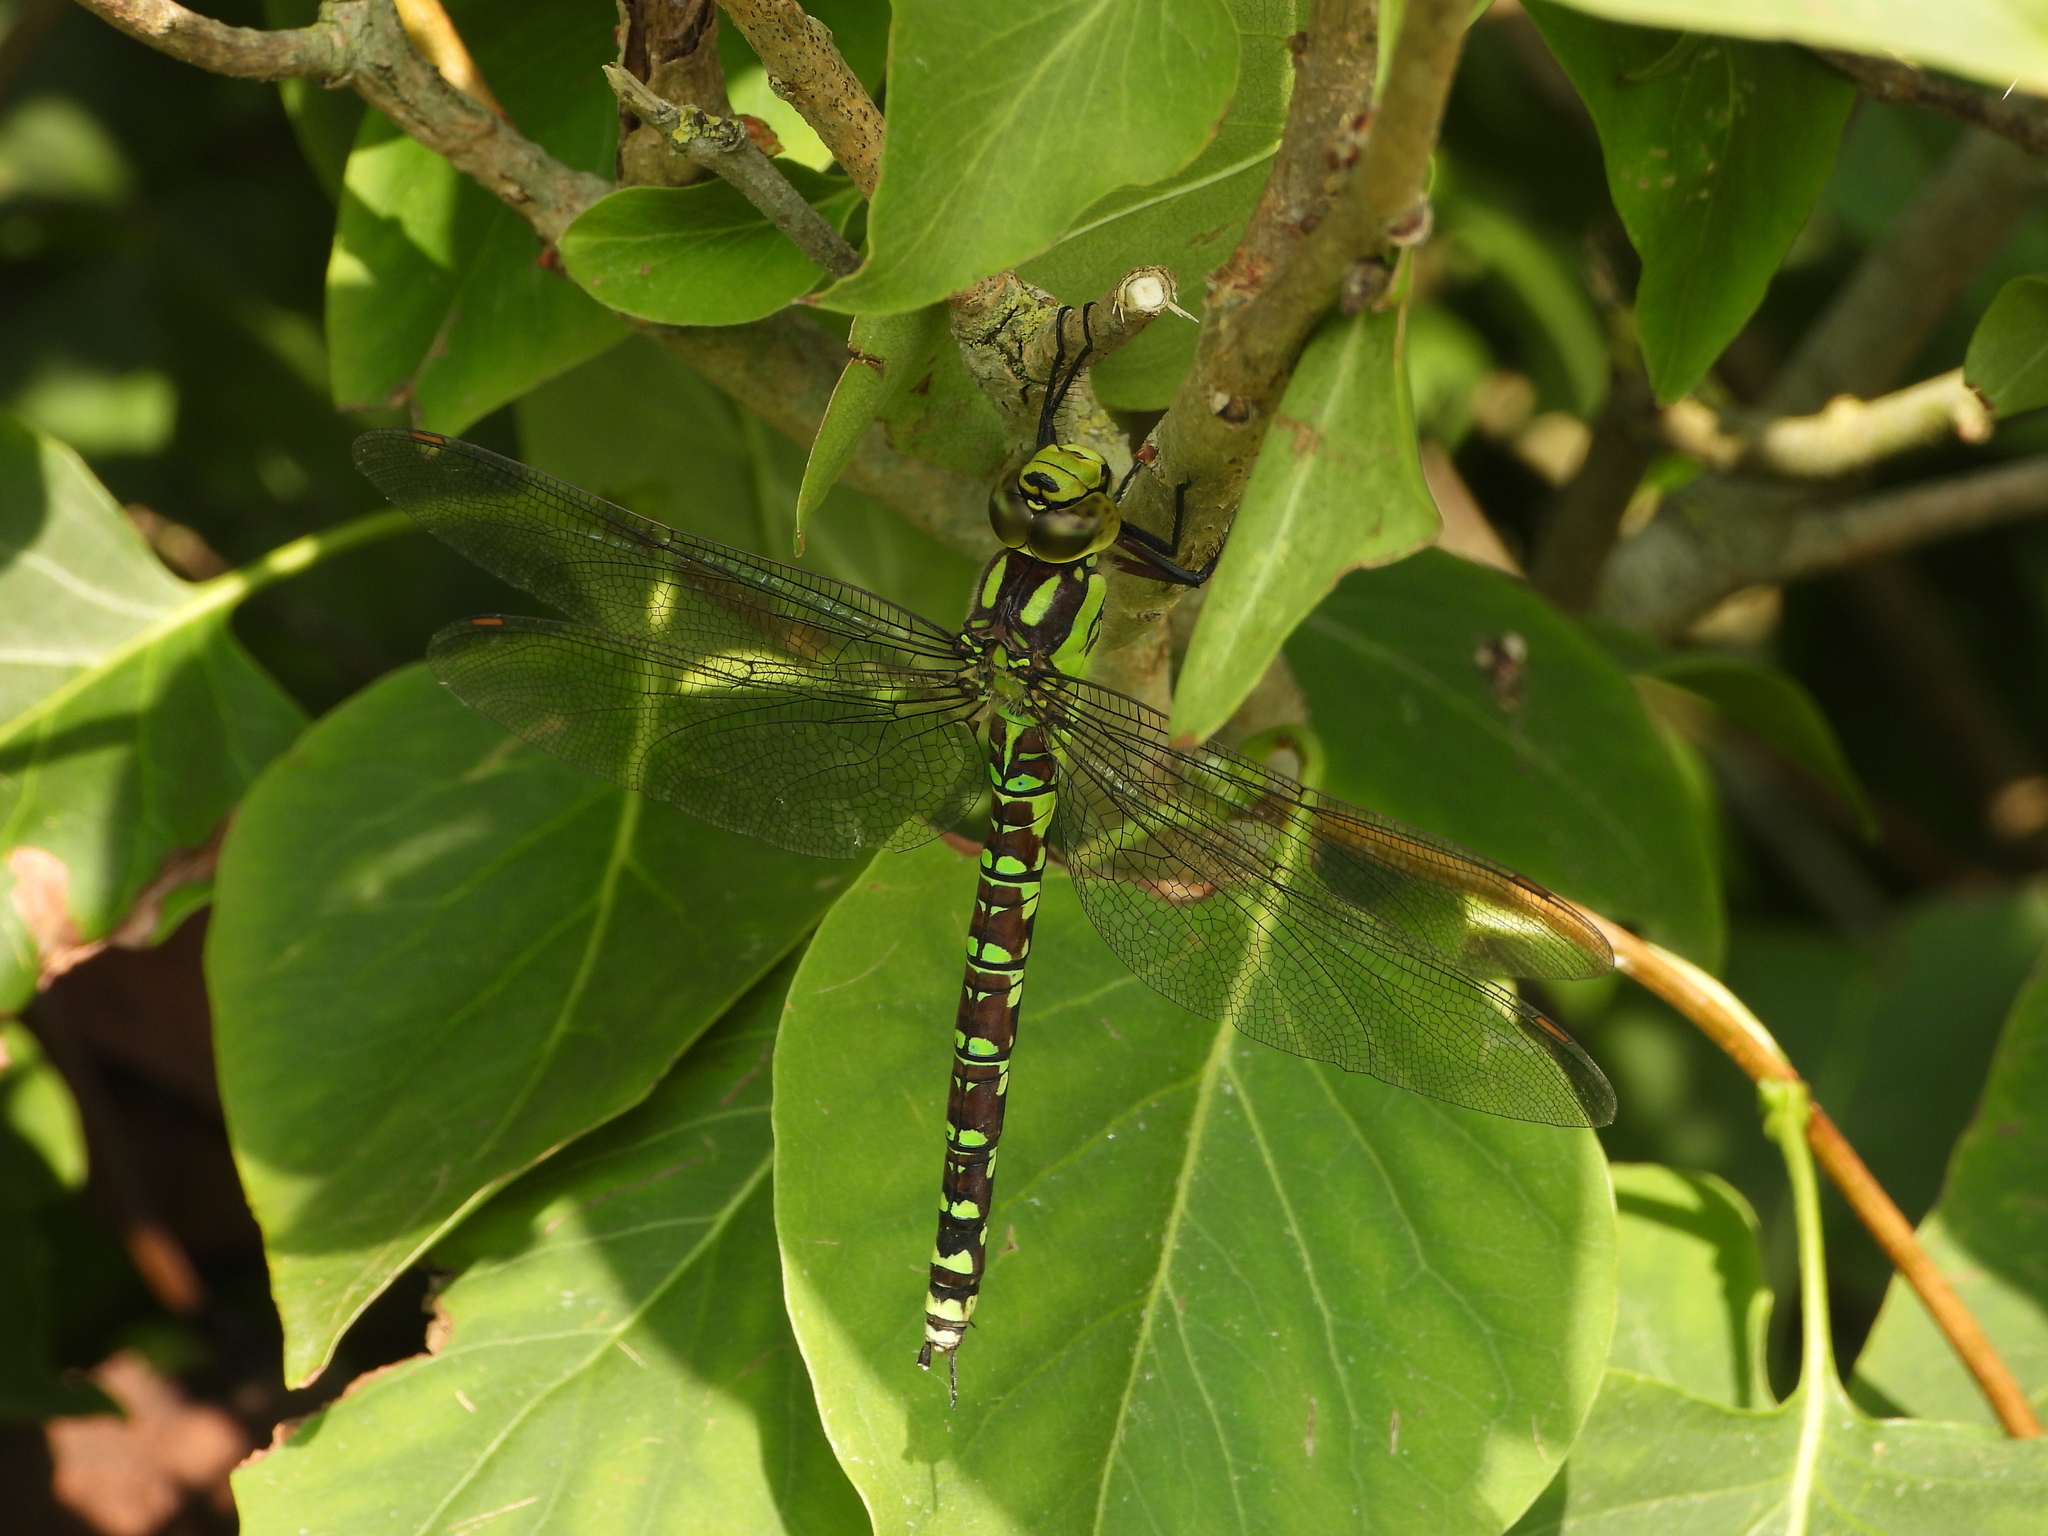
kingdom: Animalia
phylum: Arthropoda
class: Insecta
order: Odonata
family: Aeshnidae
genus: Aeshna
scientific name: Aeshna cyanea
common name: Southern hawker
